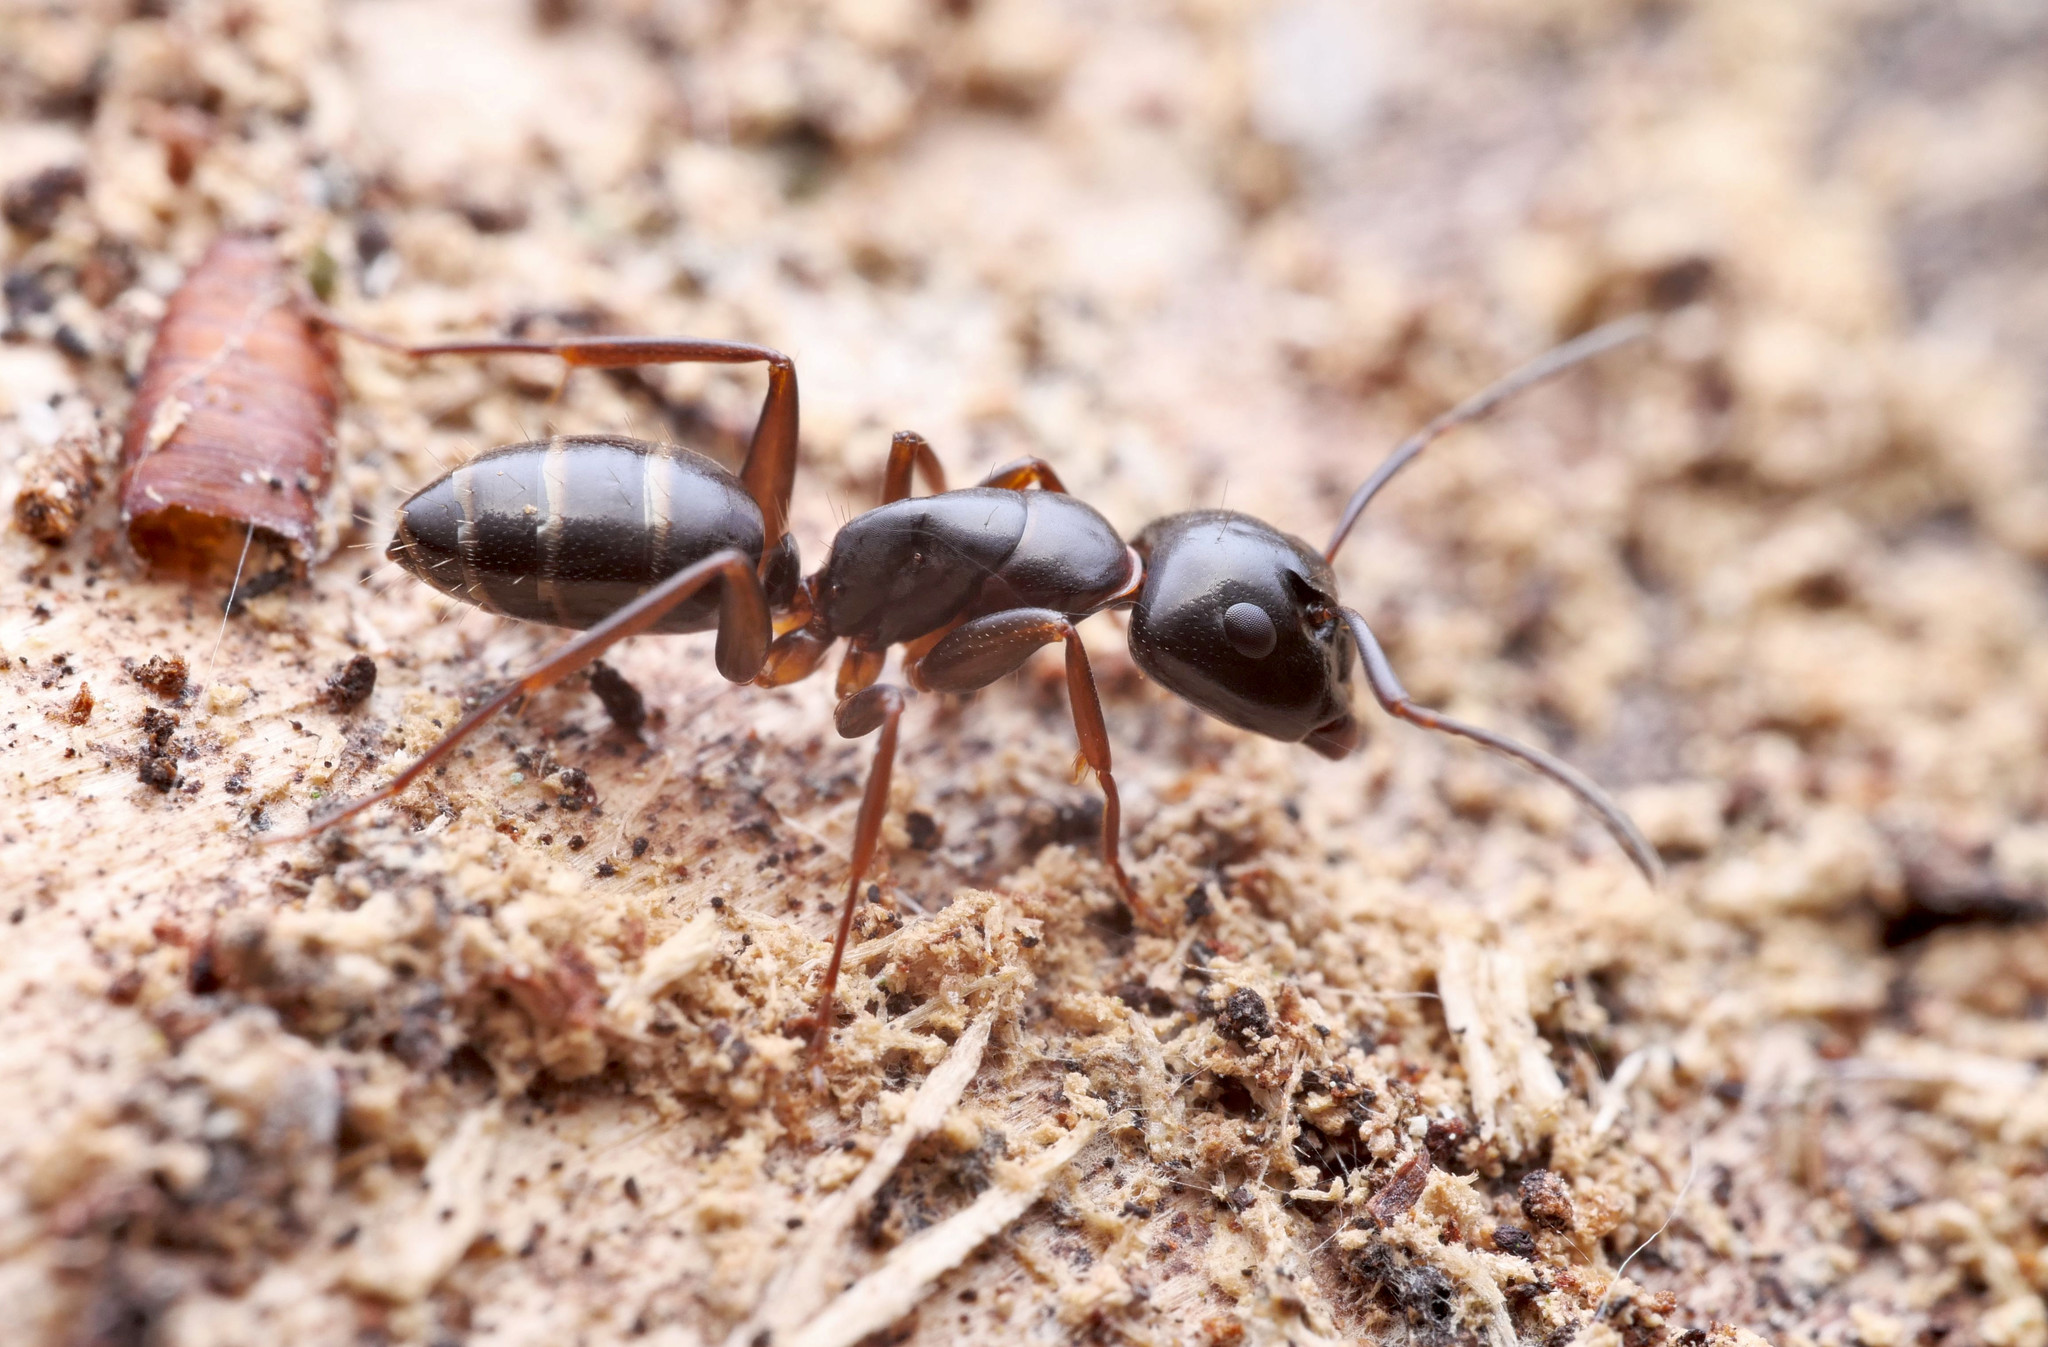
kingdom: Animalia
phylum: Arthropoda
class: Insecta
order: Hymenoptera
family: Formicidae
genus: Camponotus
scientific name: Camponotus fallax
